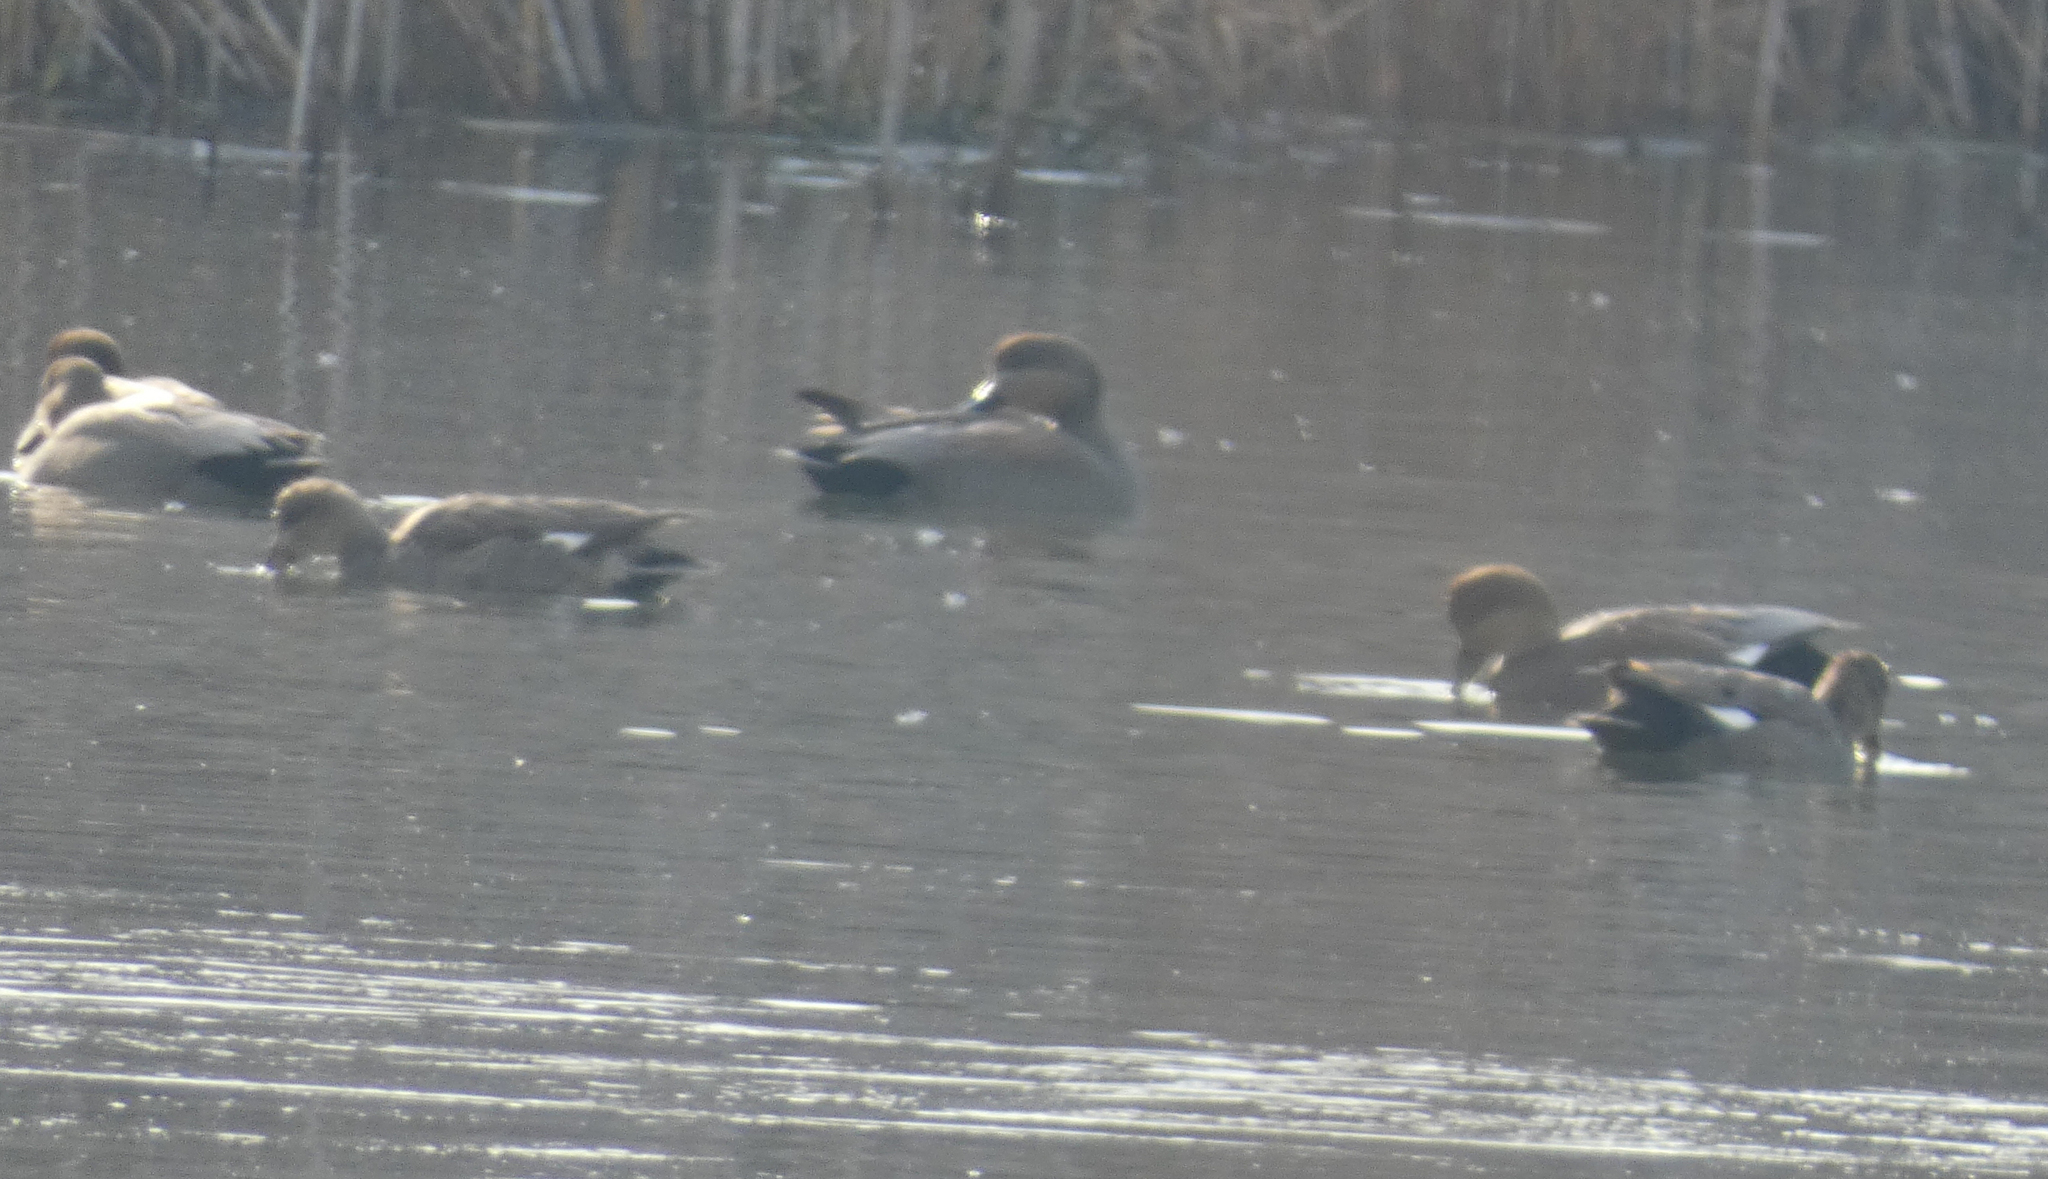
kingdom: Animalia
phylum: Chordata
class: Aves
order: Anseriformes
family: Anatidae
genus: Mareca
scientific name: Mareca strepera
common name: Gadwall
